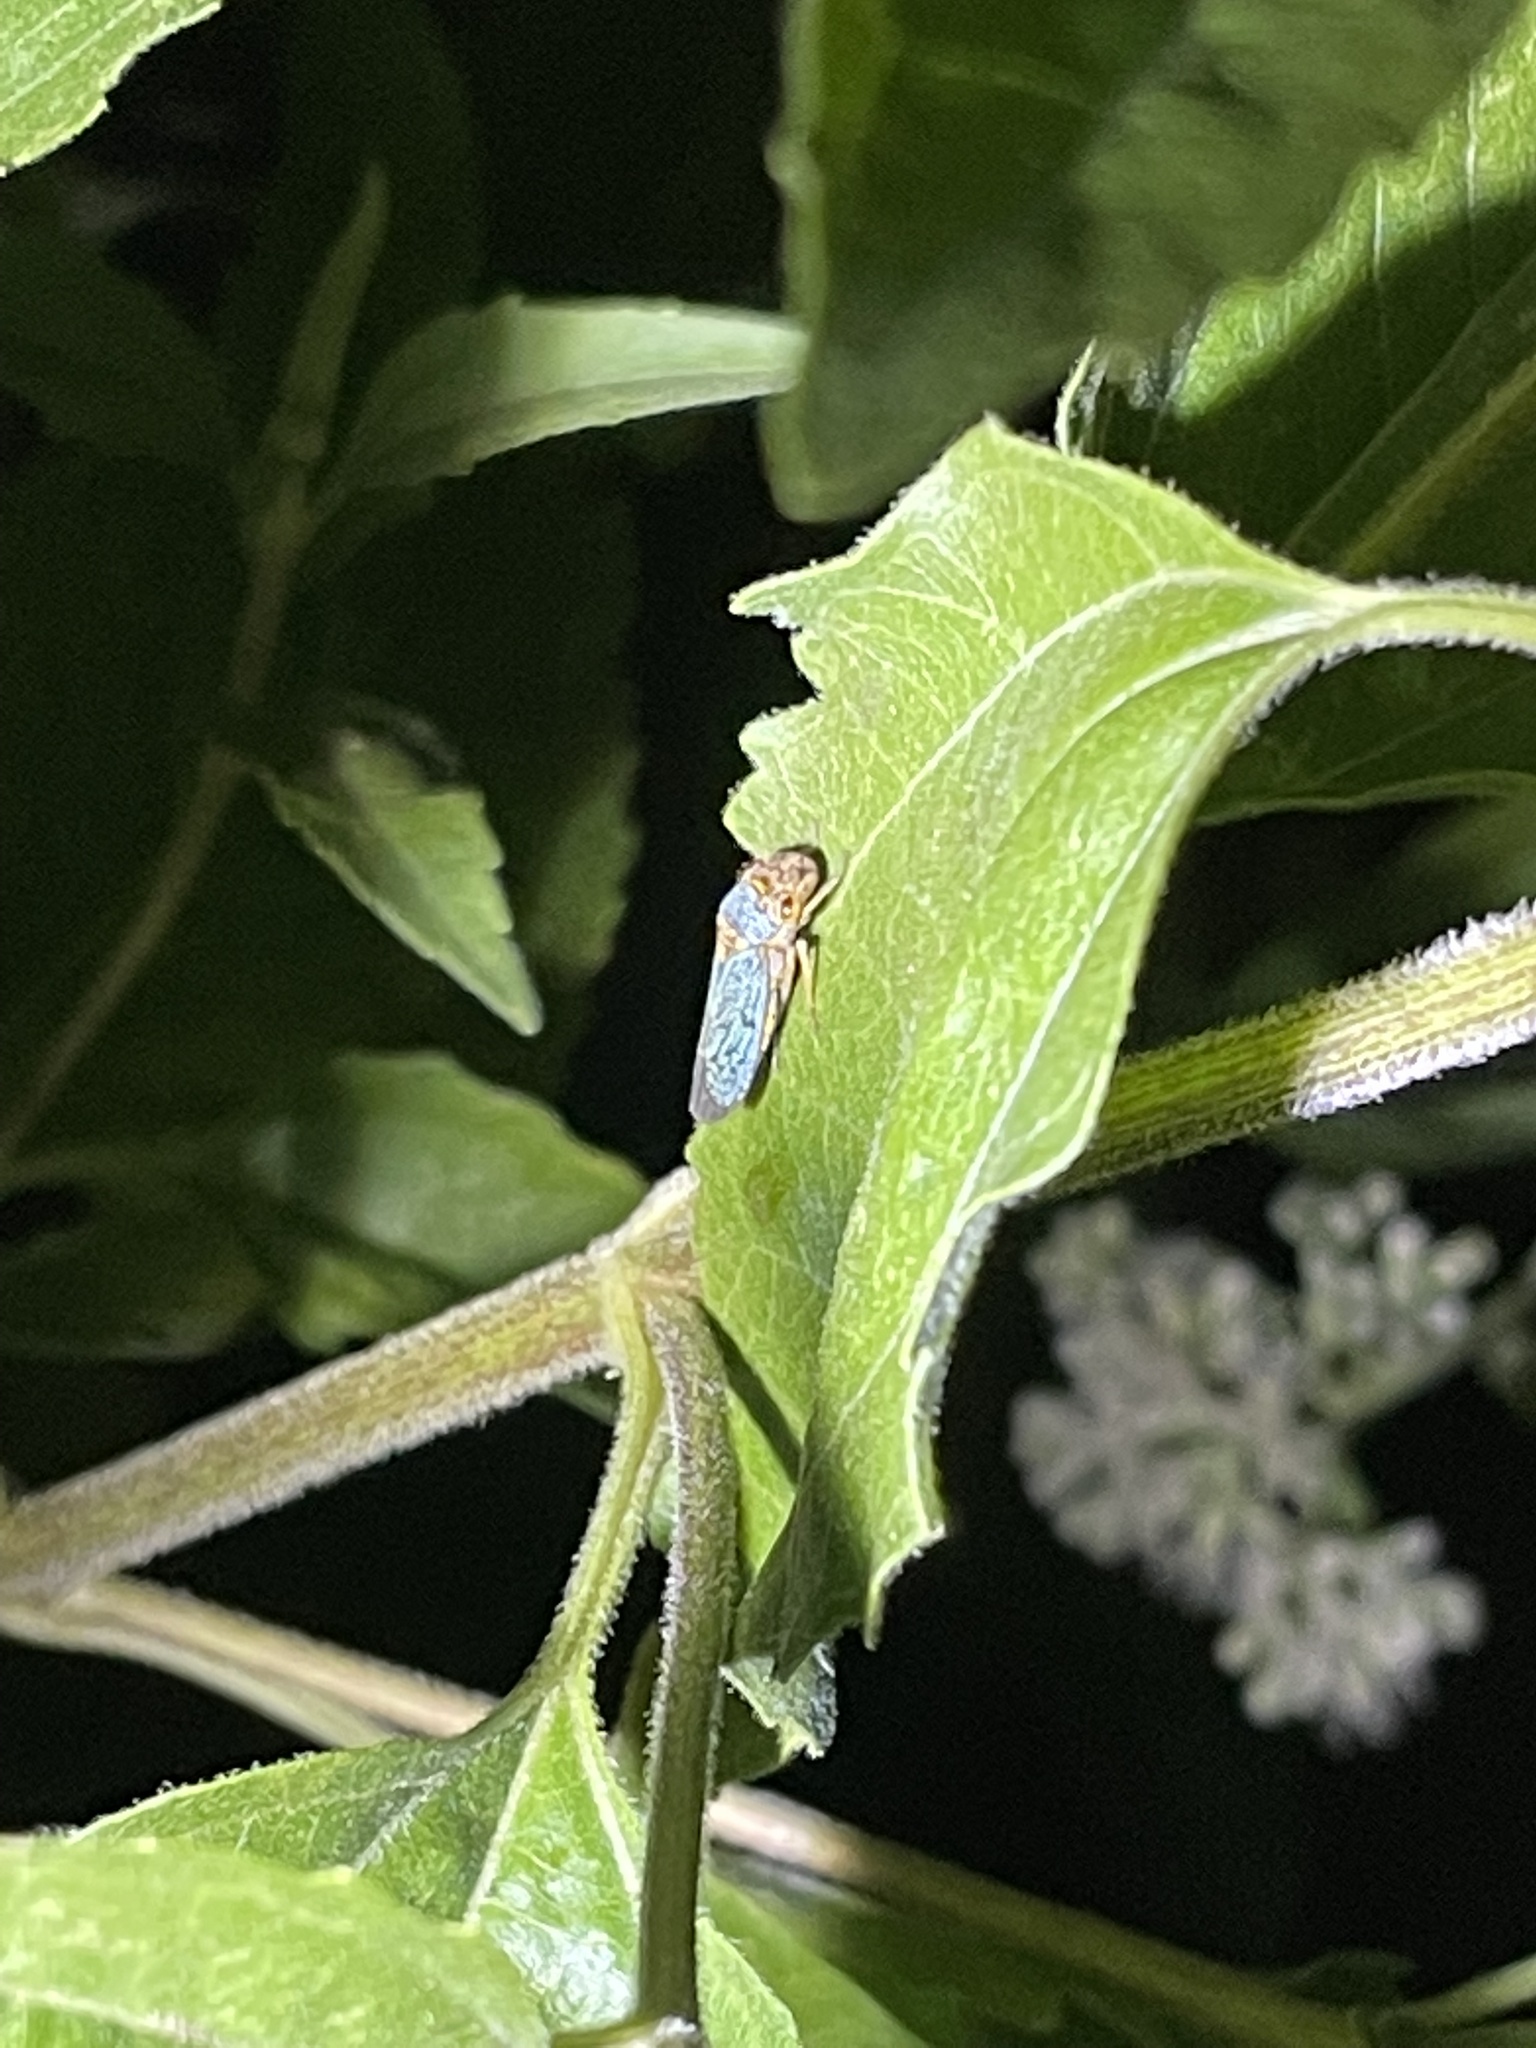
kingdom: Animalia
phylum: Arthropoda
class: Insecta
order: Hemiptera
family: Cicadellidae
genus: Oncometopia
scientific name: Oncometopia orbona
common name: Broad-headed sharpshooter
